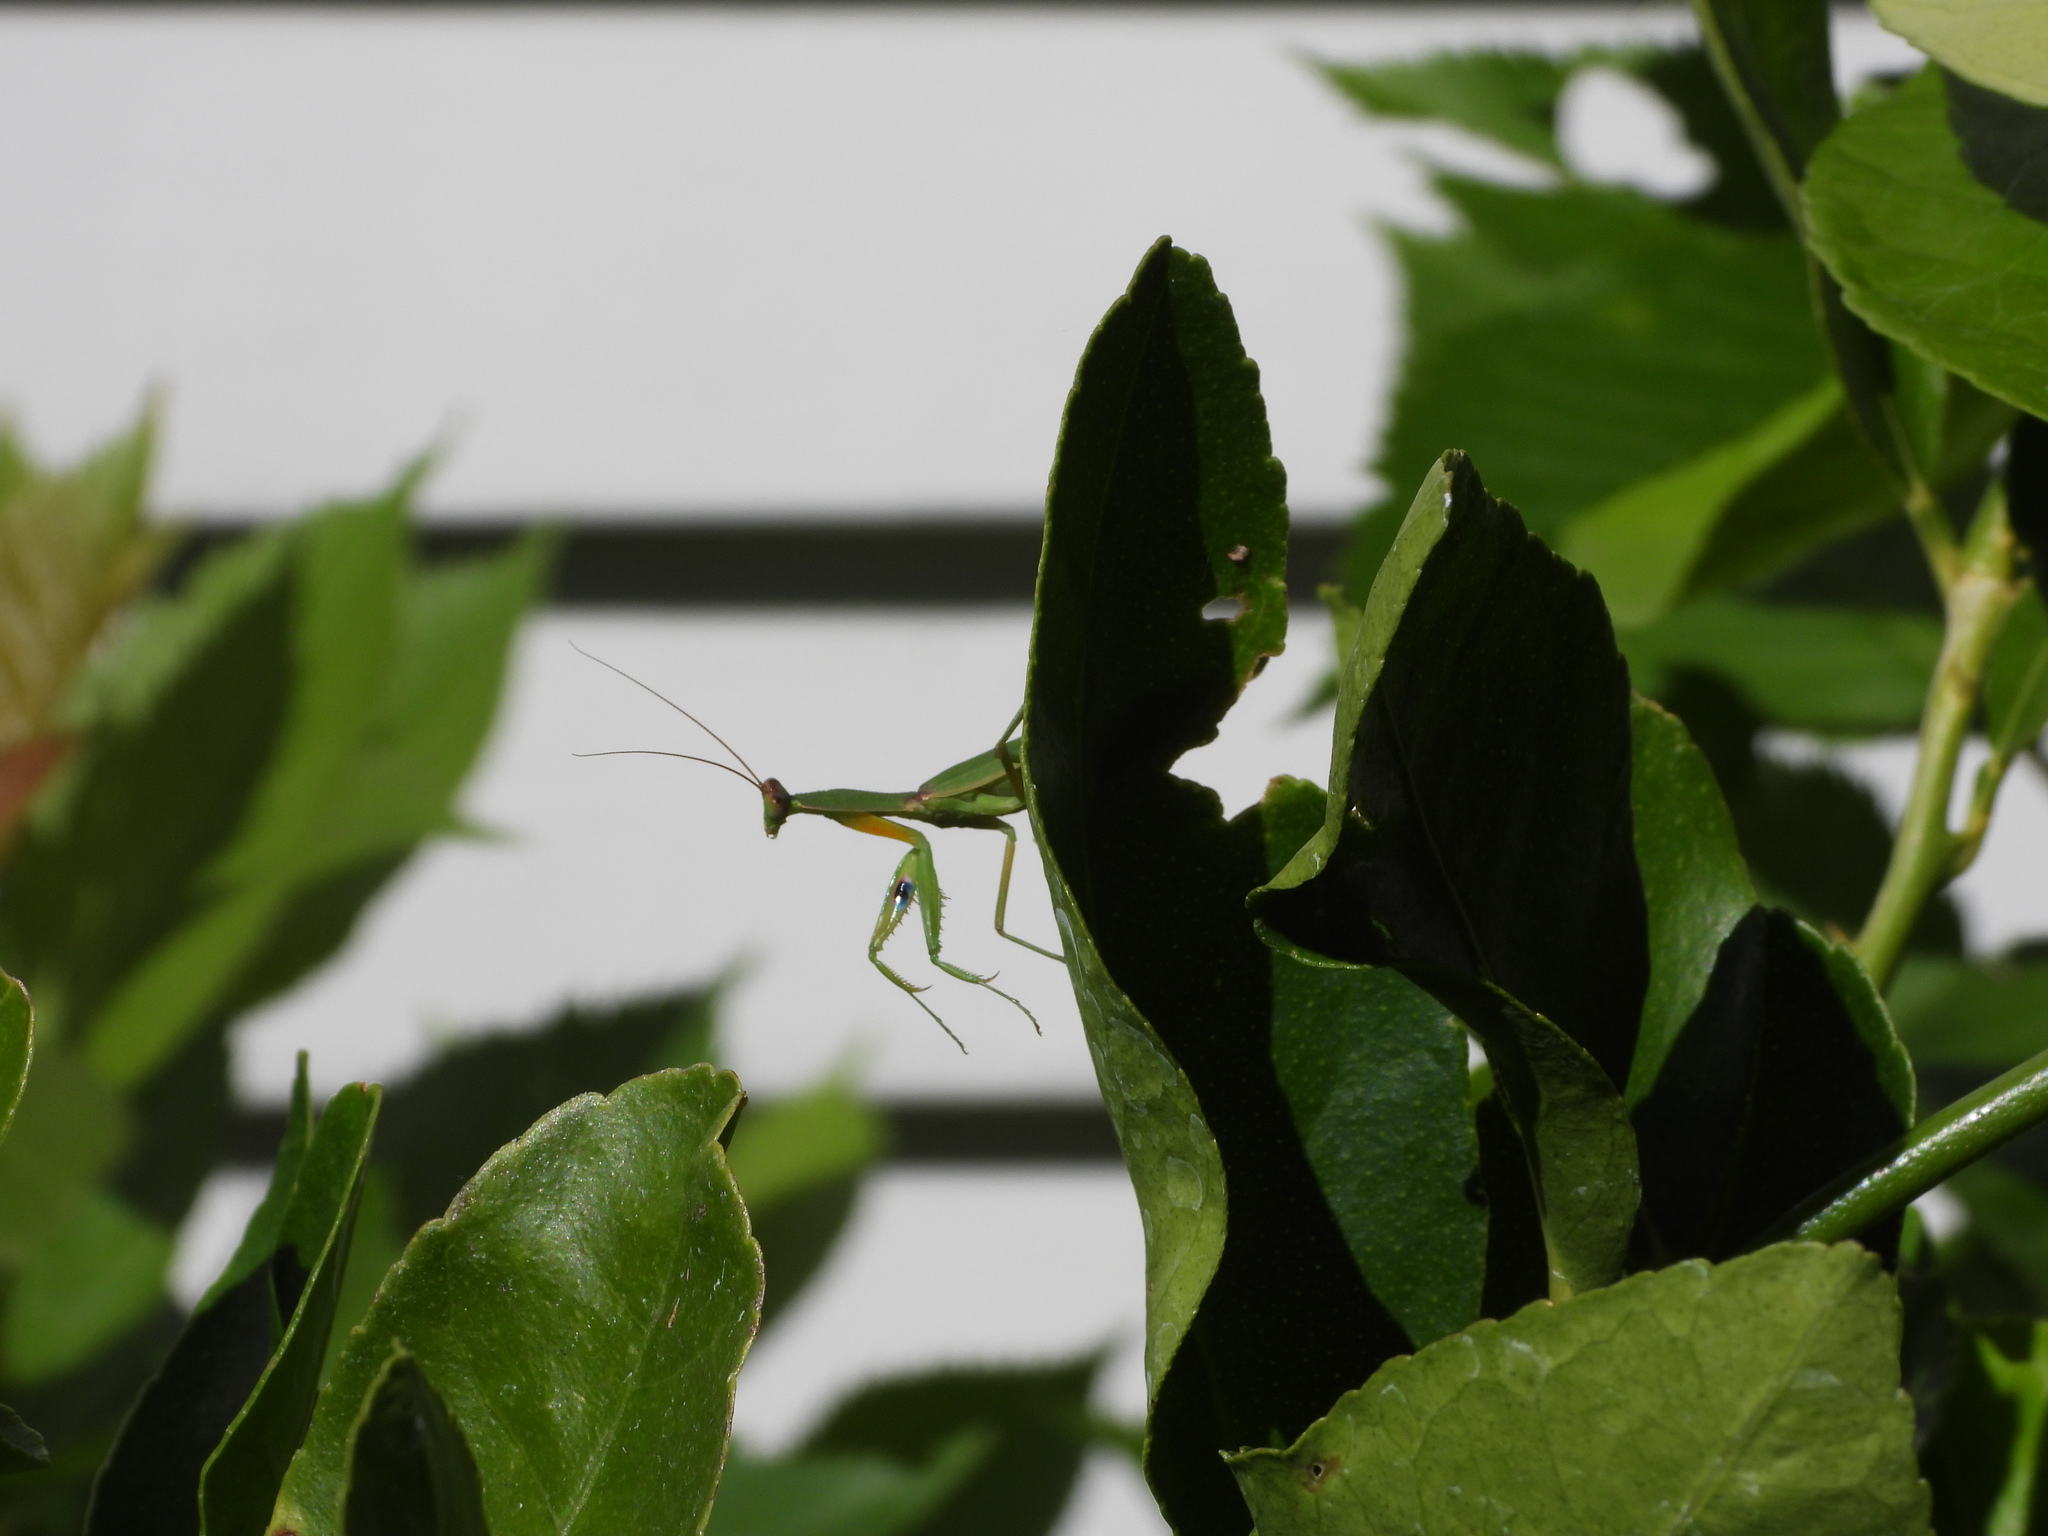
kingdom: Animalia
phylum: Arthropoda
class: Insecta
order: Mantodea
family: Mantidae
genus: Orthodera
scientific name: Orthodera novaezealandiae
